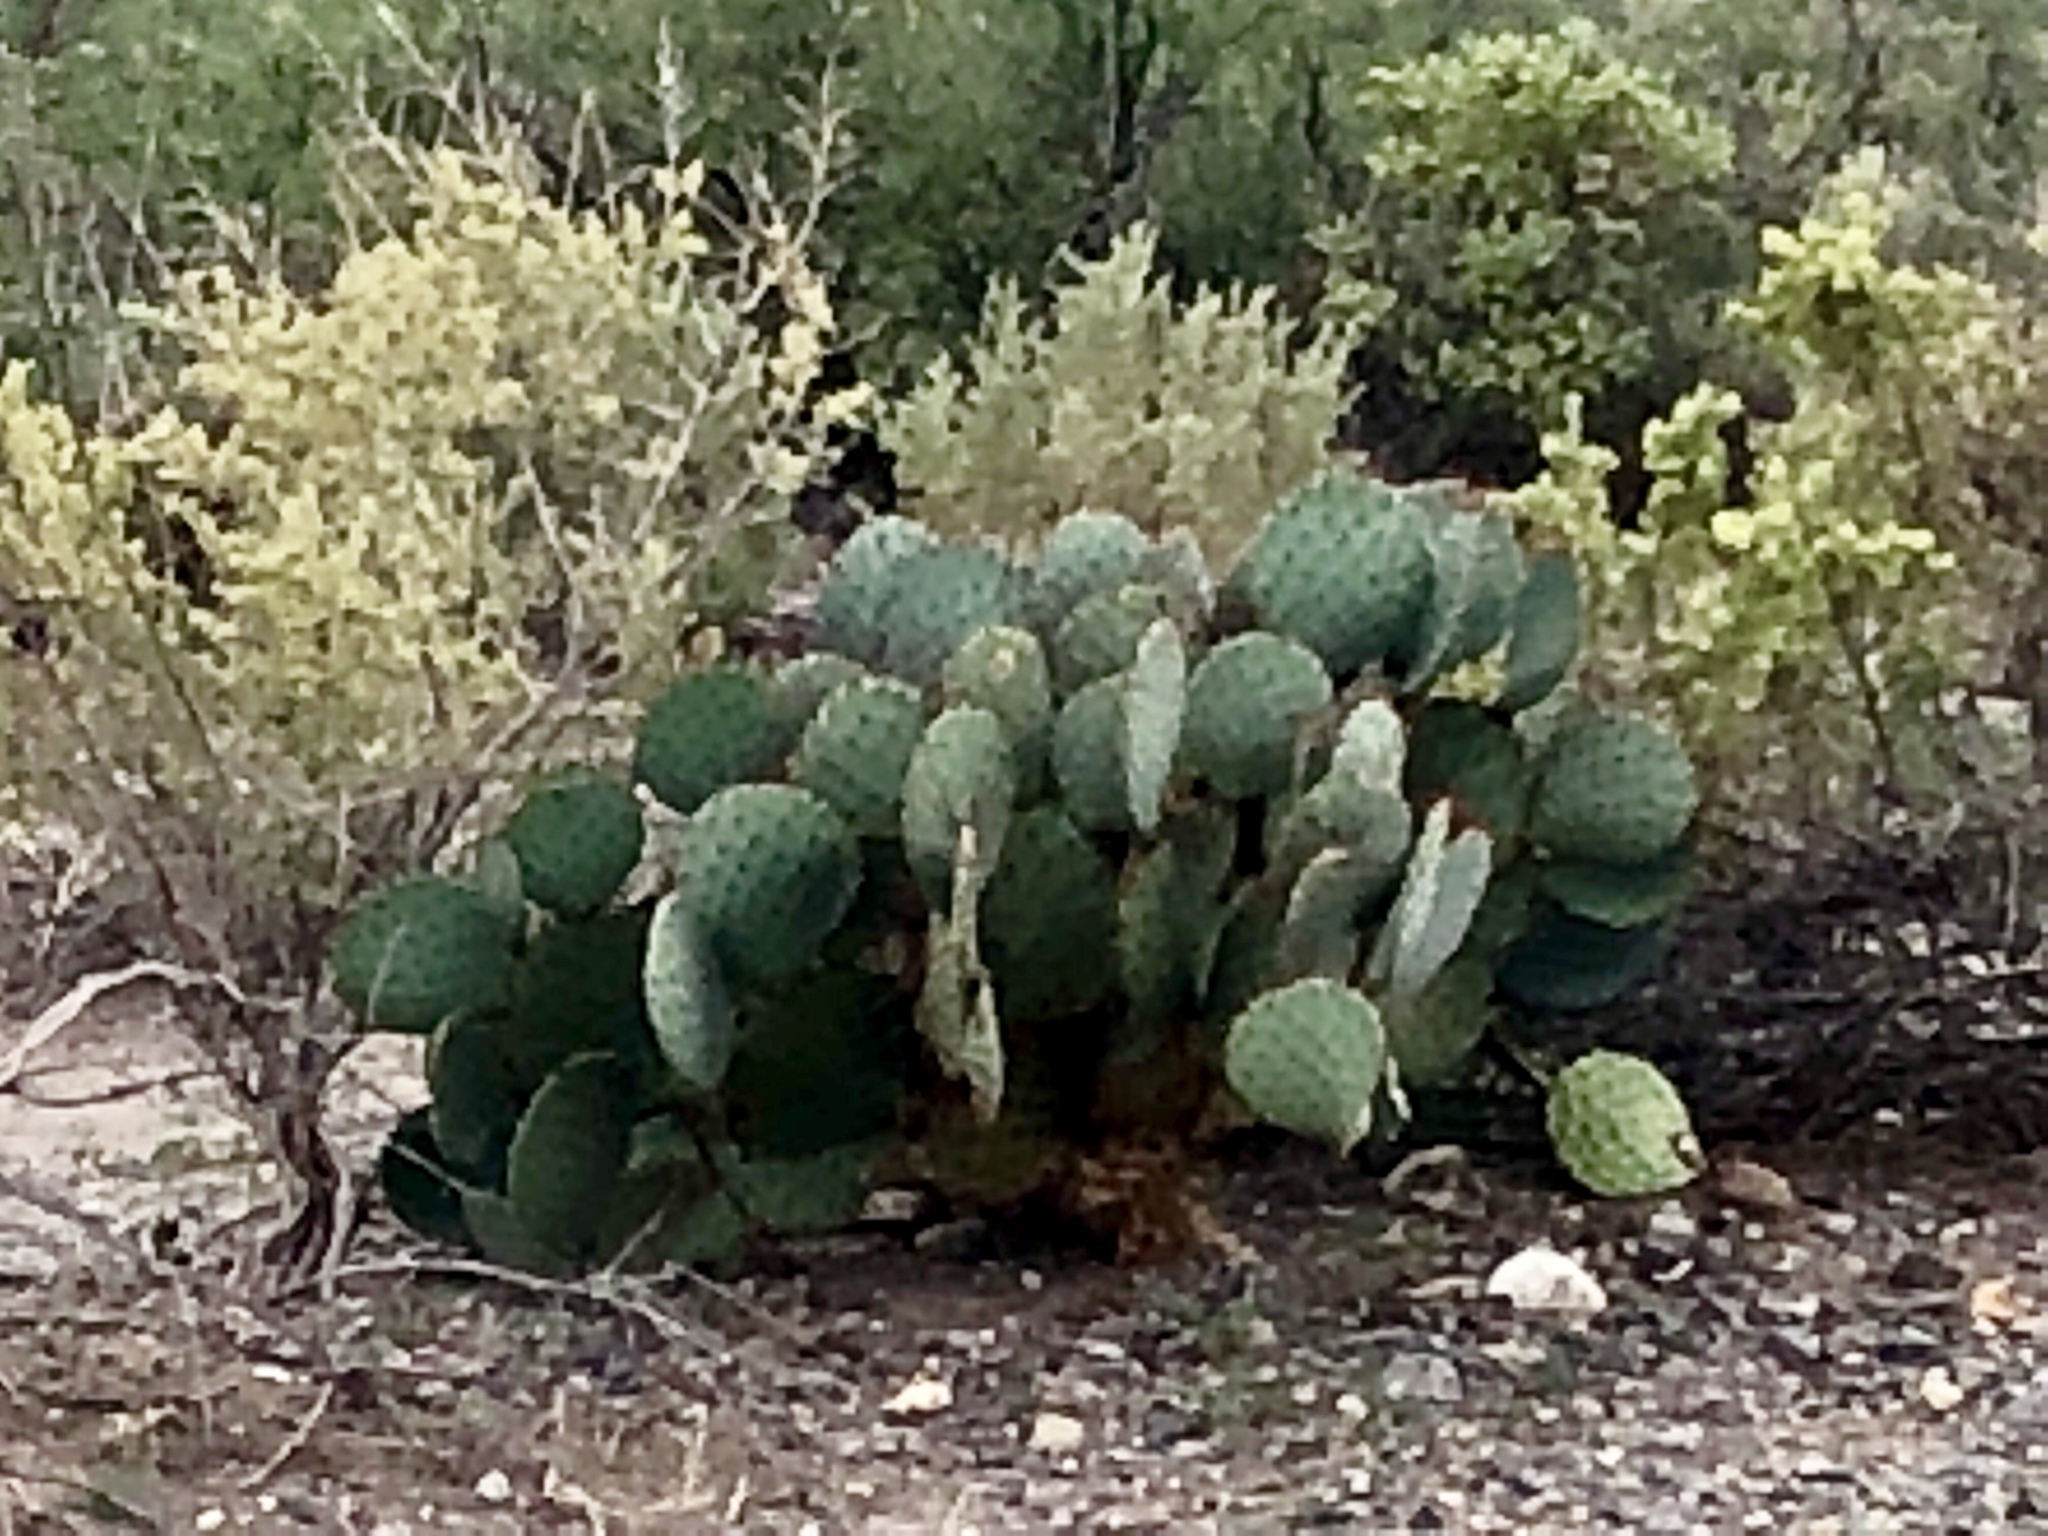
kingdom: Plantae
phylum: Tracheophyta
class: Magnoliopsida
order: Caryophyllales
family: Cactaceae
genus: Opuntia
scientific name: Opuntia macrocentra
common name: Purple prickly-pear
